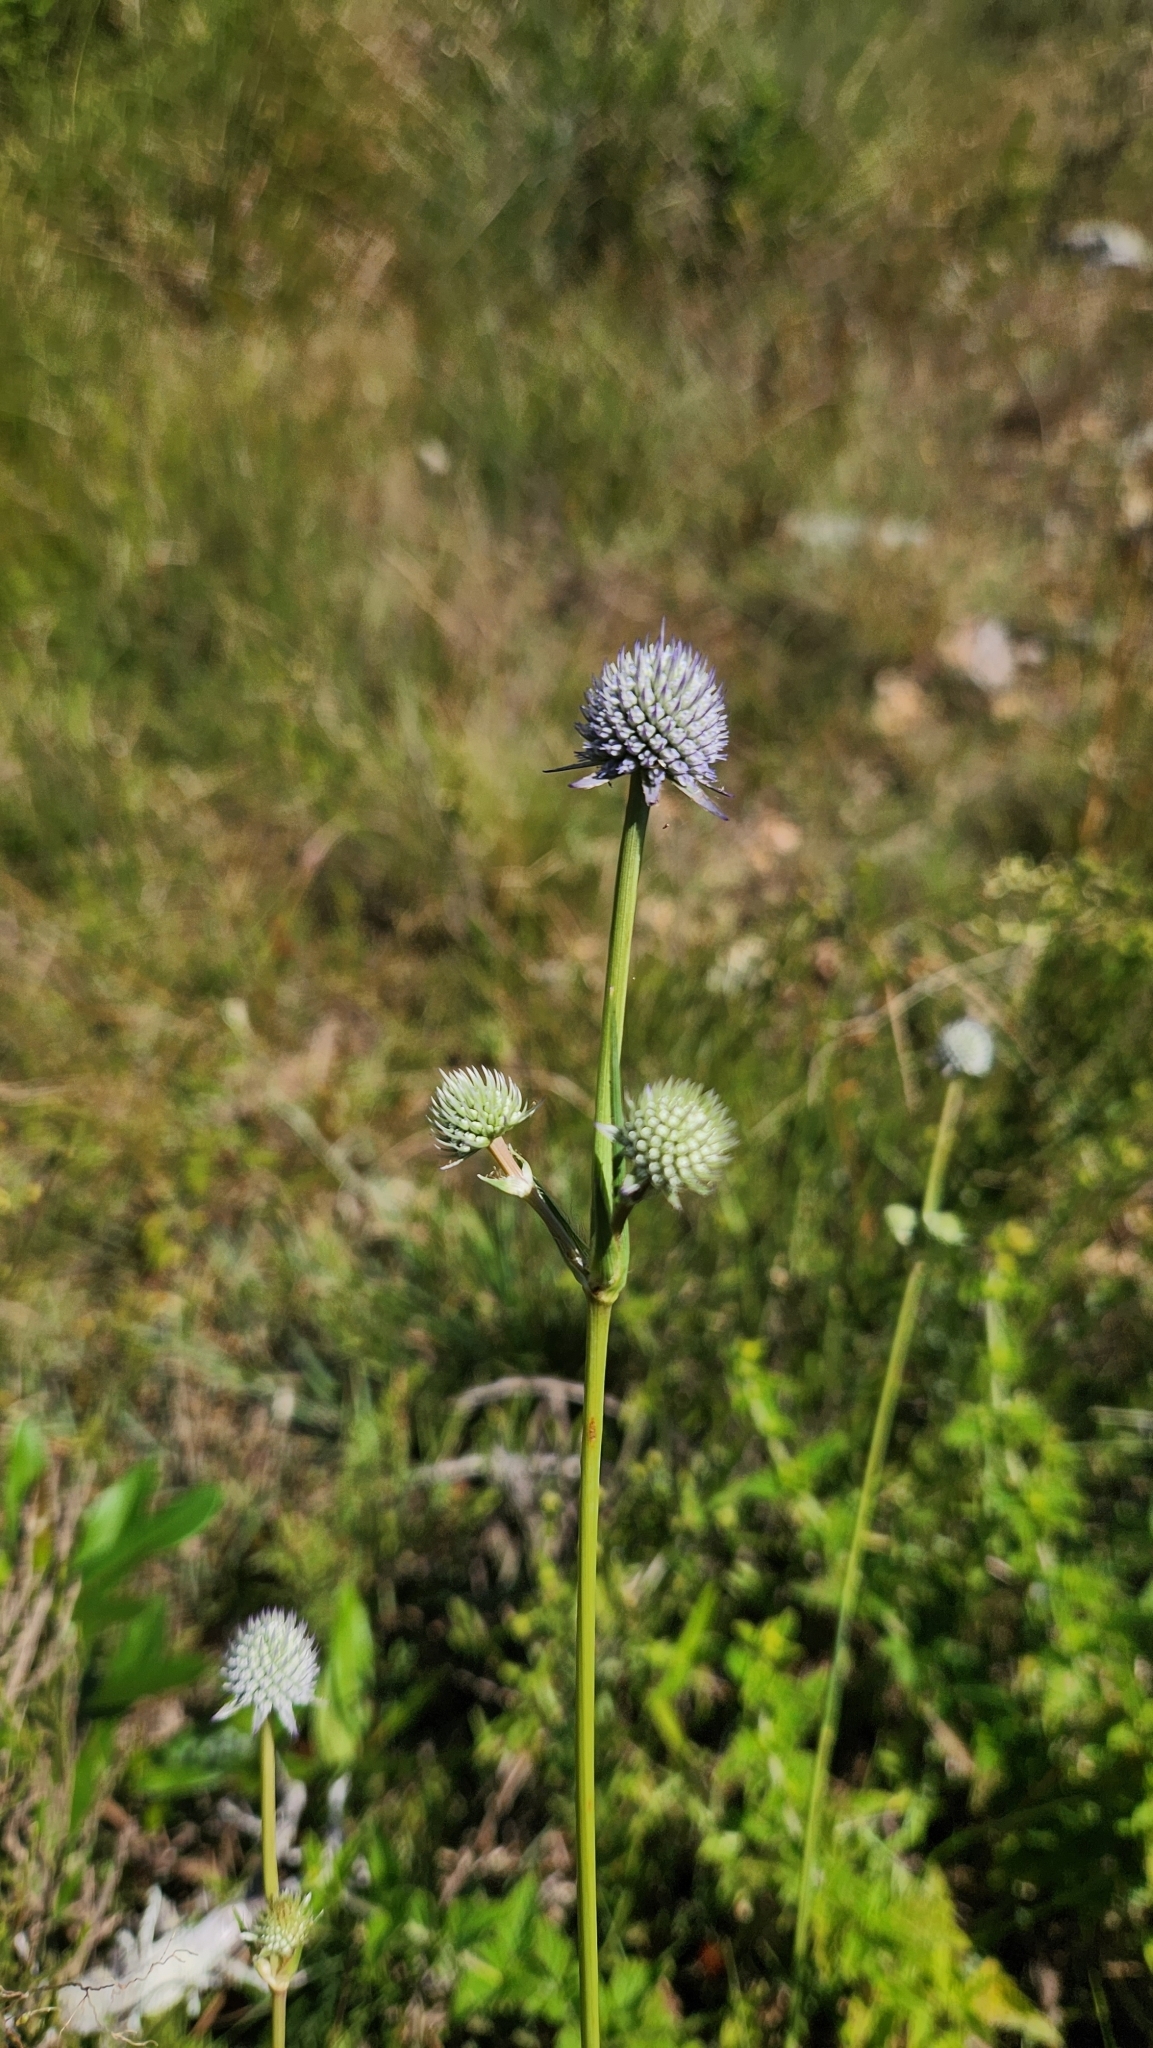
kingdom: Plantae
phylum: Tracheophyta
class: Magnoliopsida
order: Apiales
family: Apiaceae
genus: Eryngium
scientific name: Eryngium eriophorum
